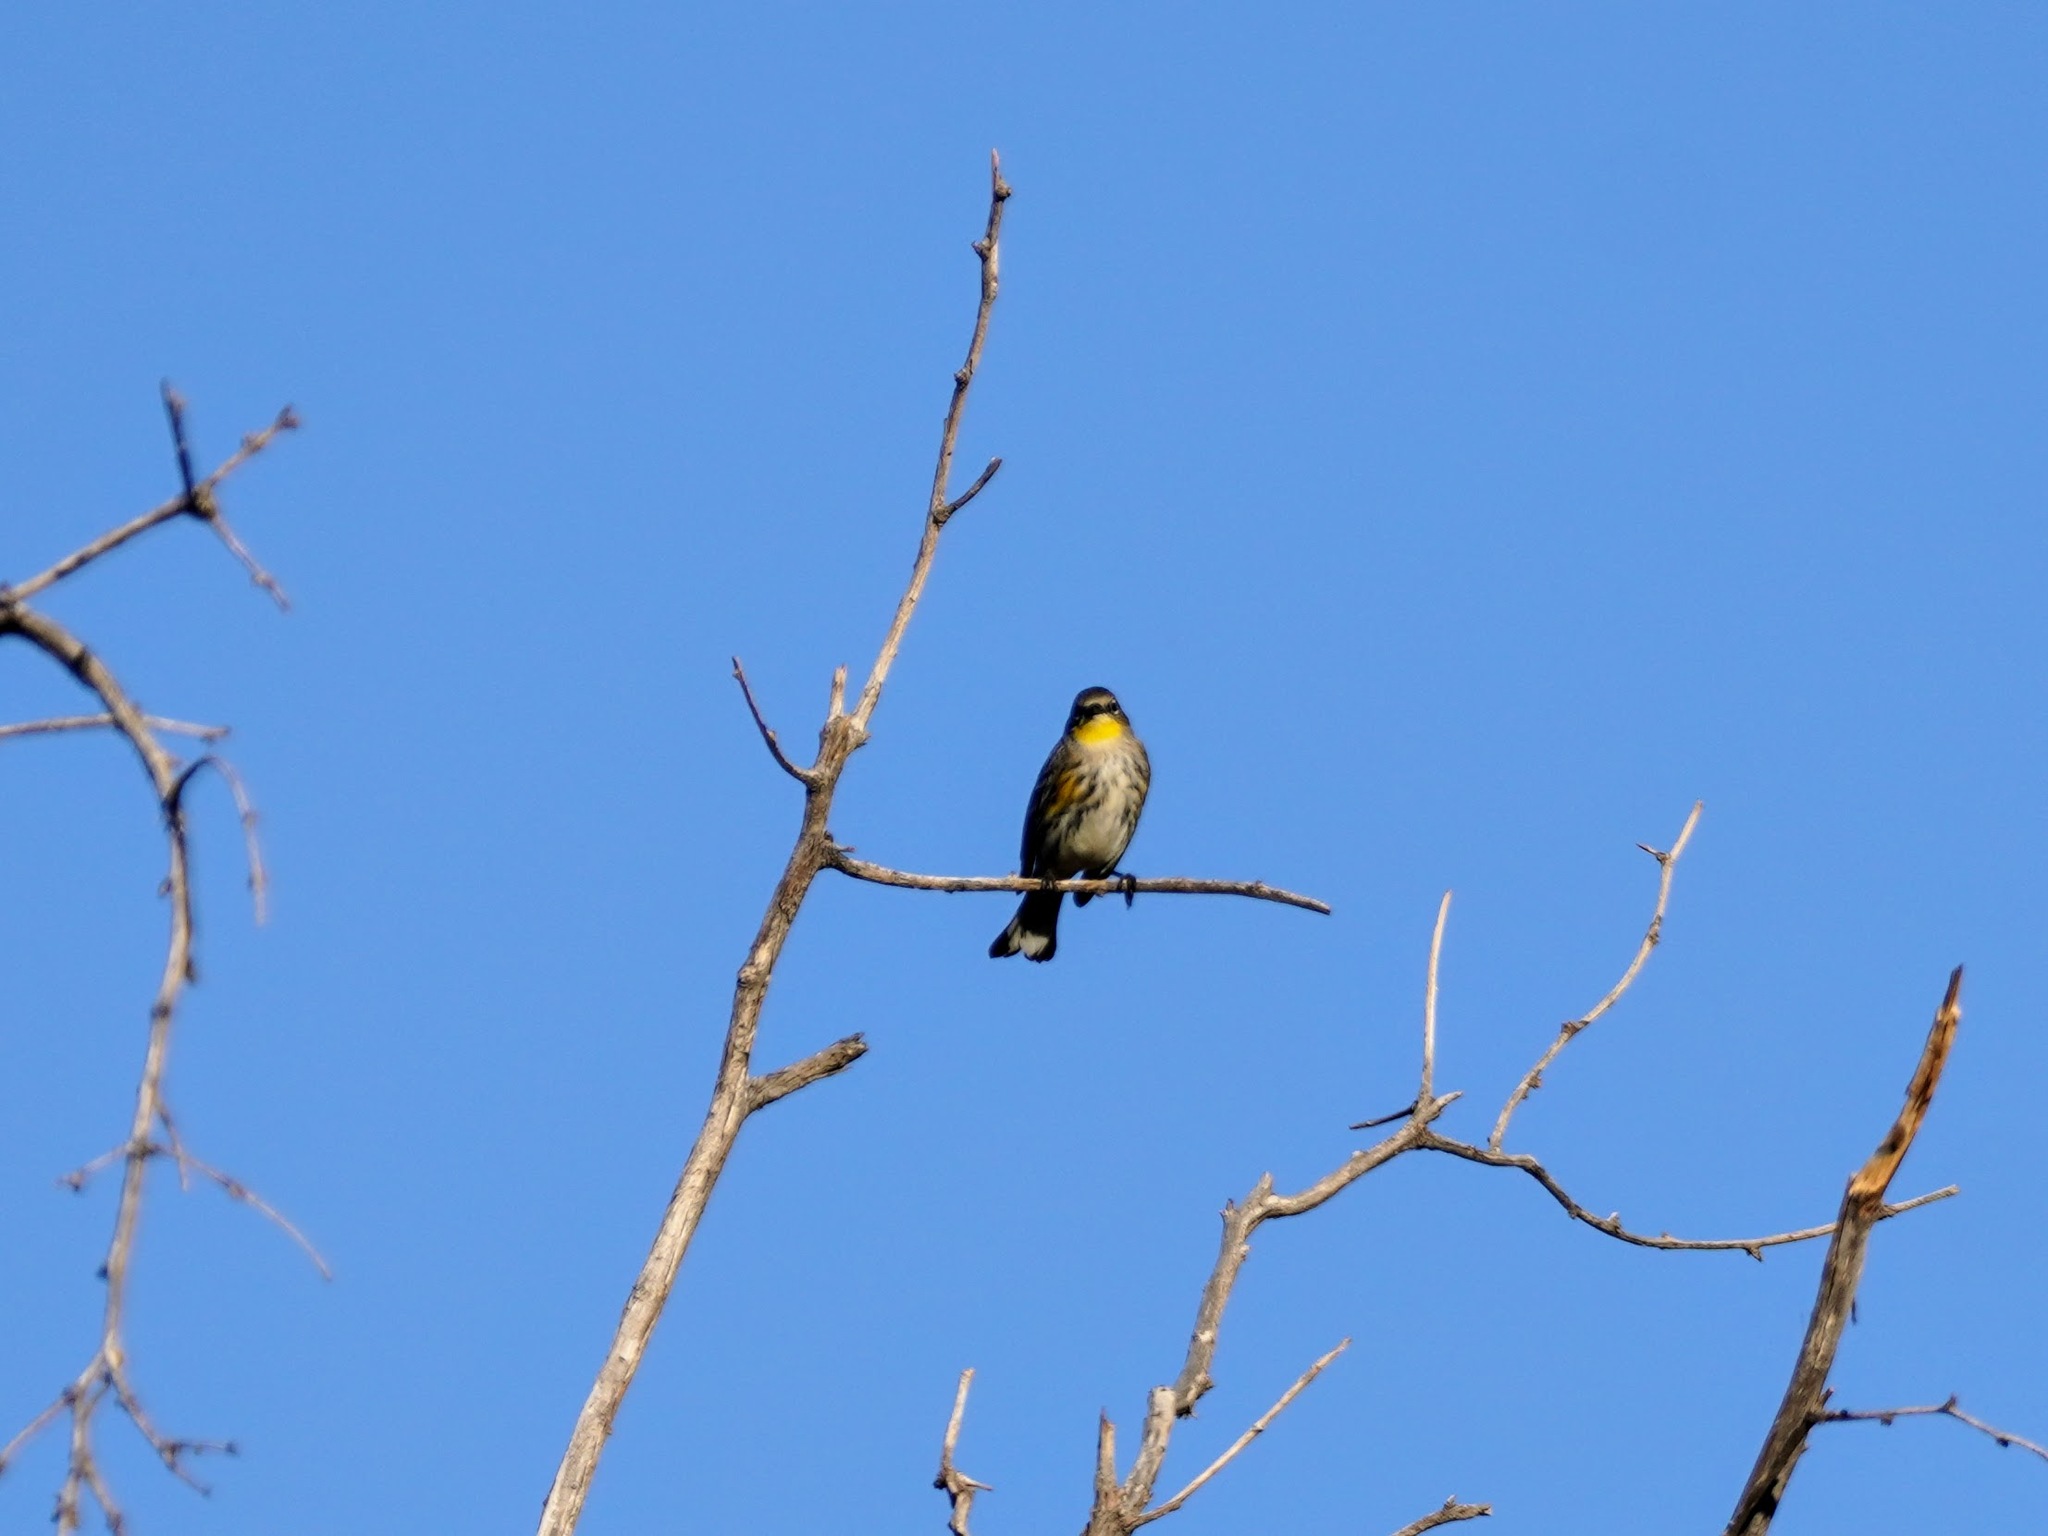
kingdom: Animalia
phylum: Chordata
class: Aves
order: Passeriformes
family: Parulidae
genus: Setophaga
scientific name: Setophaga coronata
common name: Myrtle warbler
